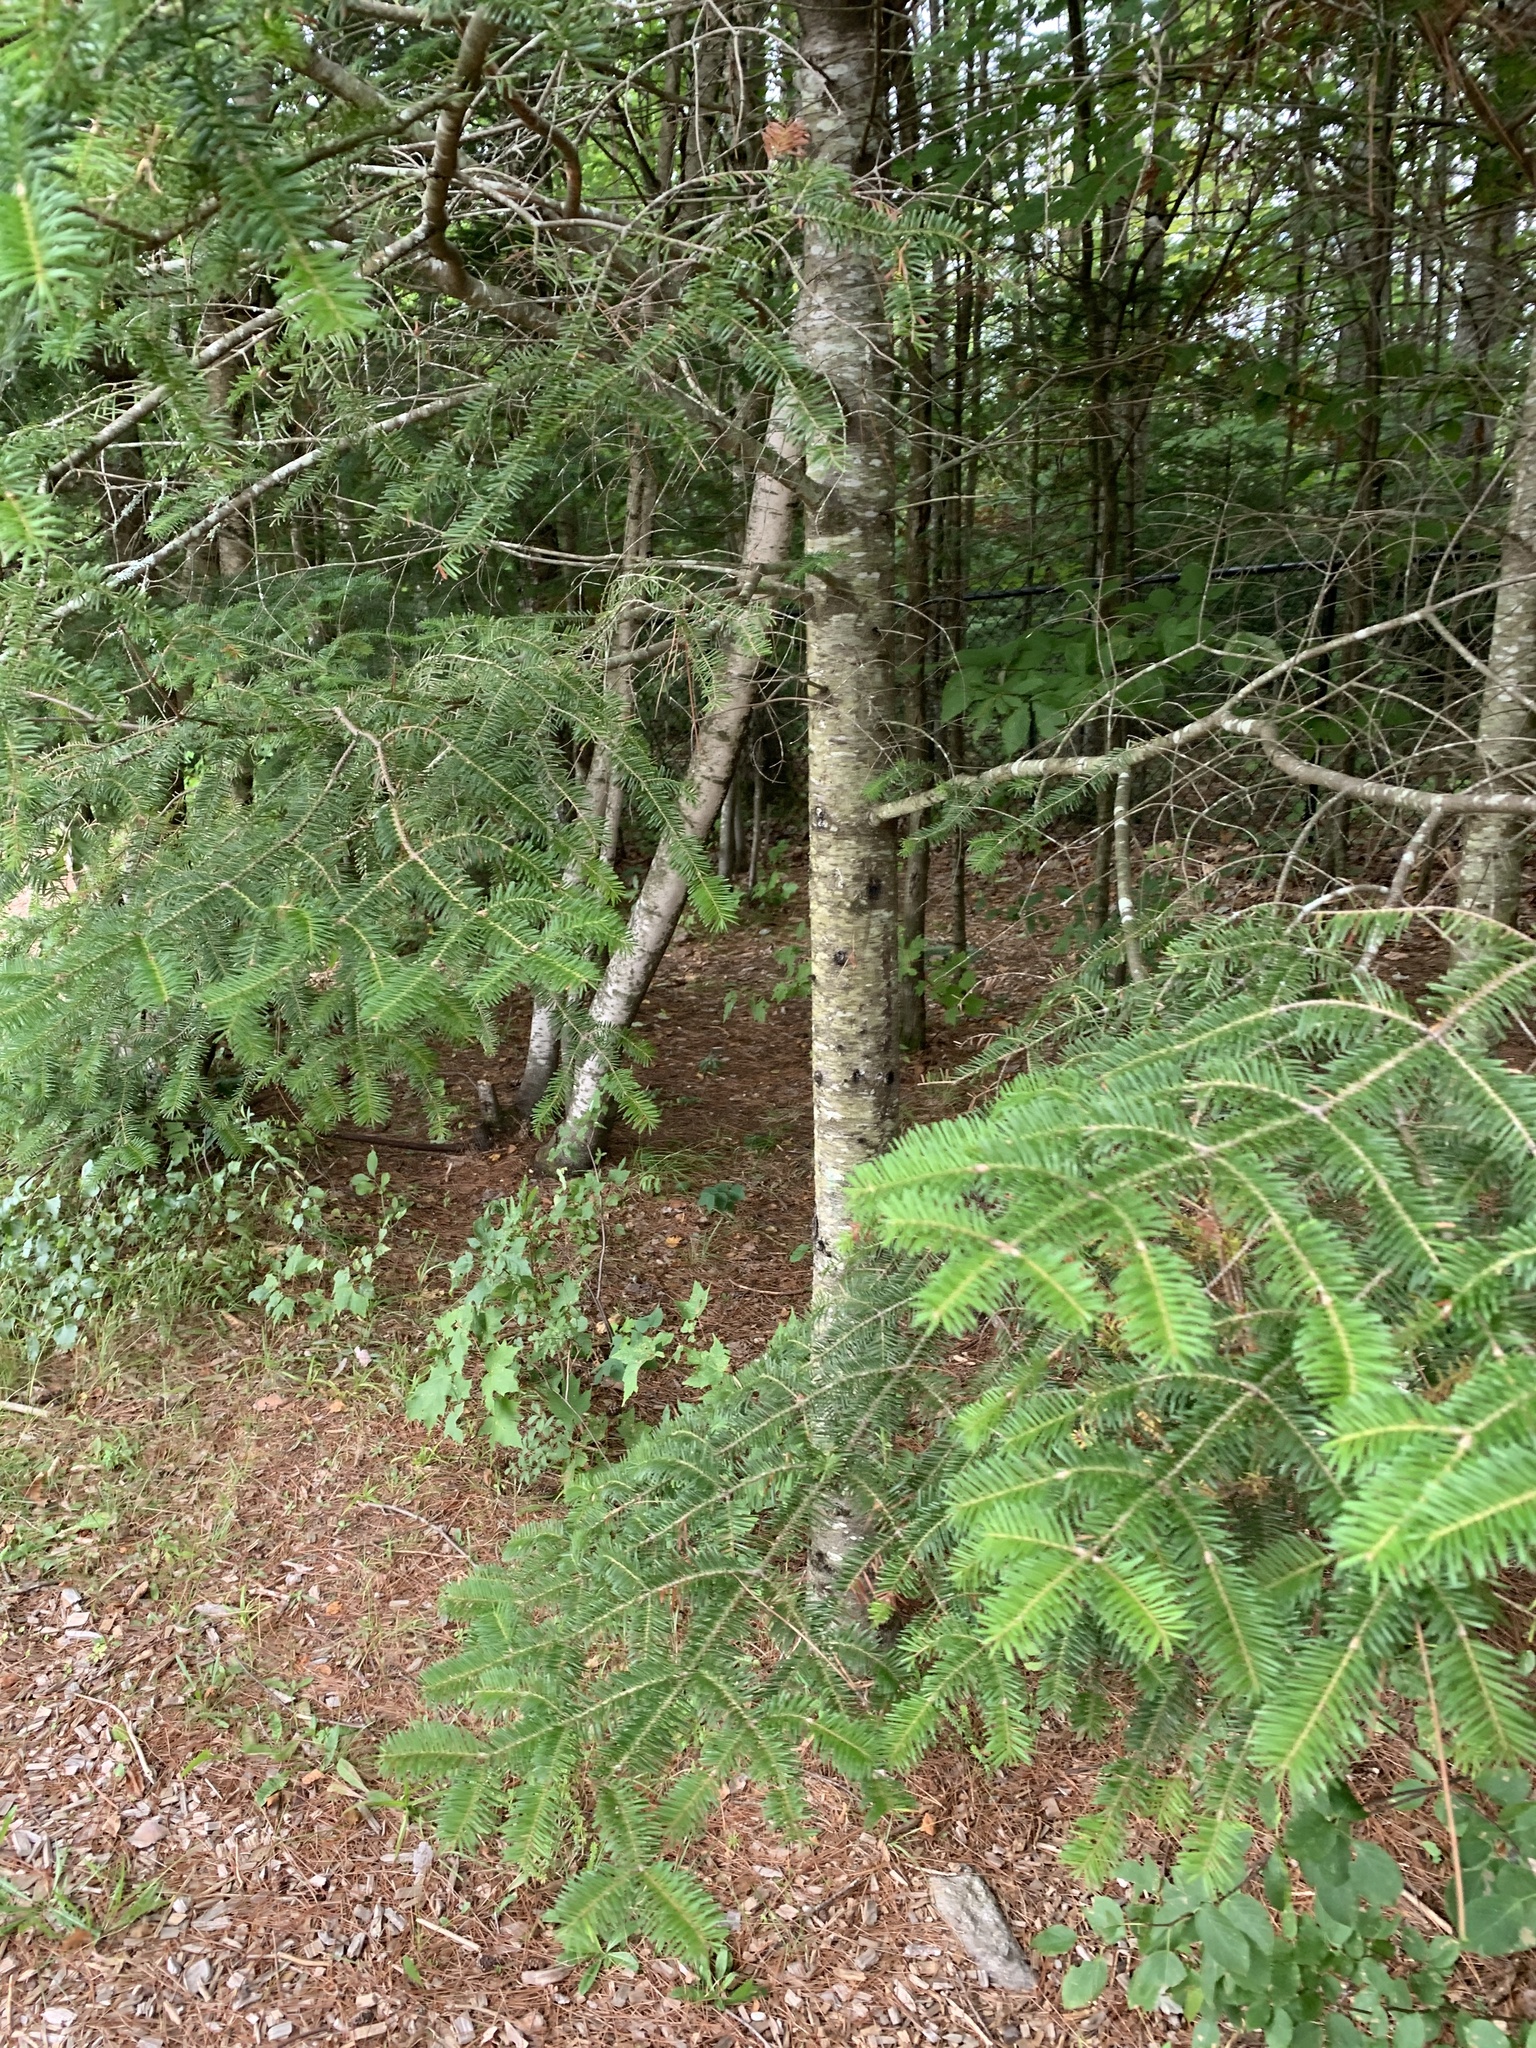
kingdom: Plantae
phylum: Tracheophyta
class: Pinopsida
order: Pinales
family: Pinaceae
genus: Abies
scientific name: Abies balsamea
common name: Balsam fir
